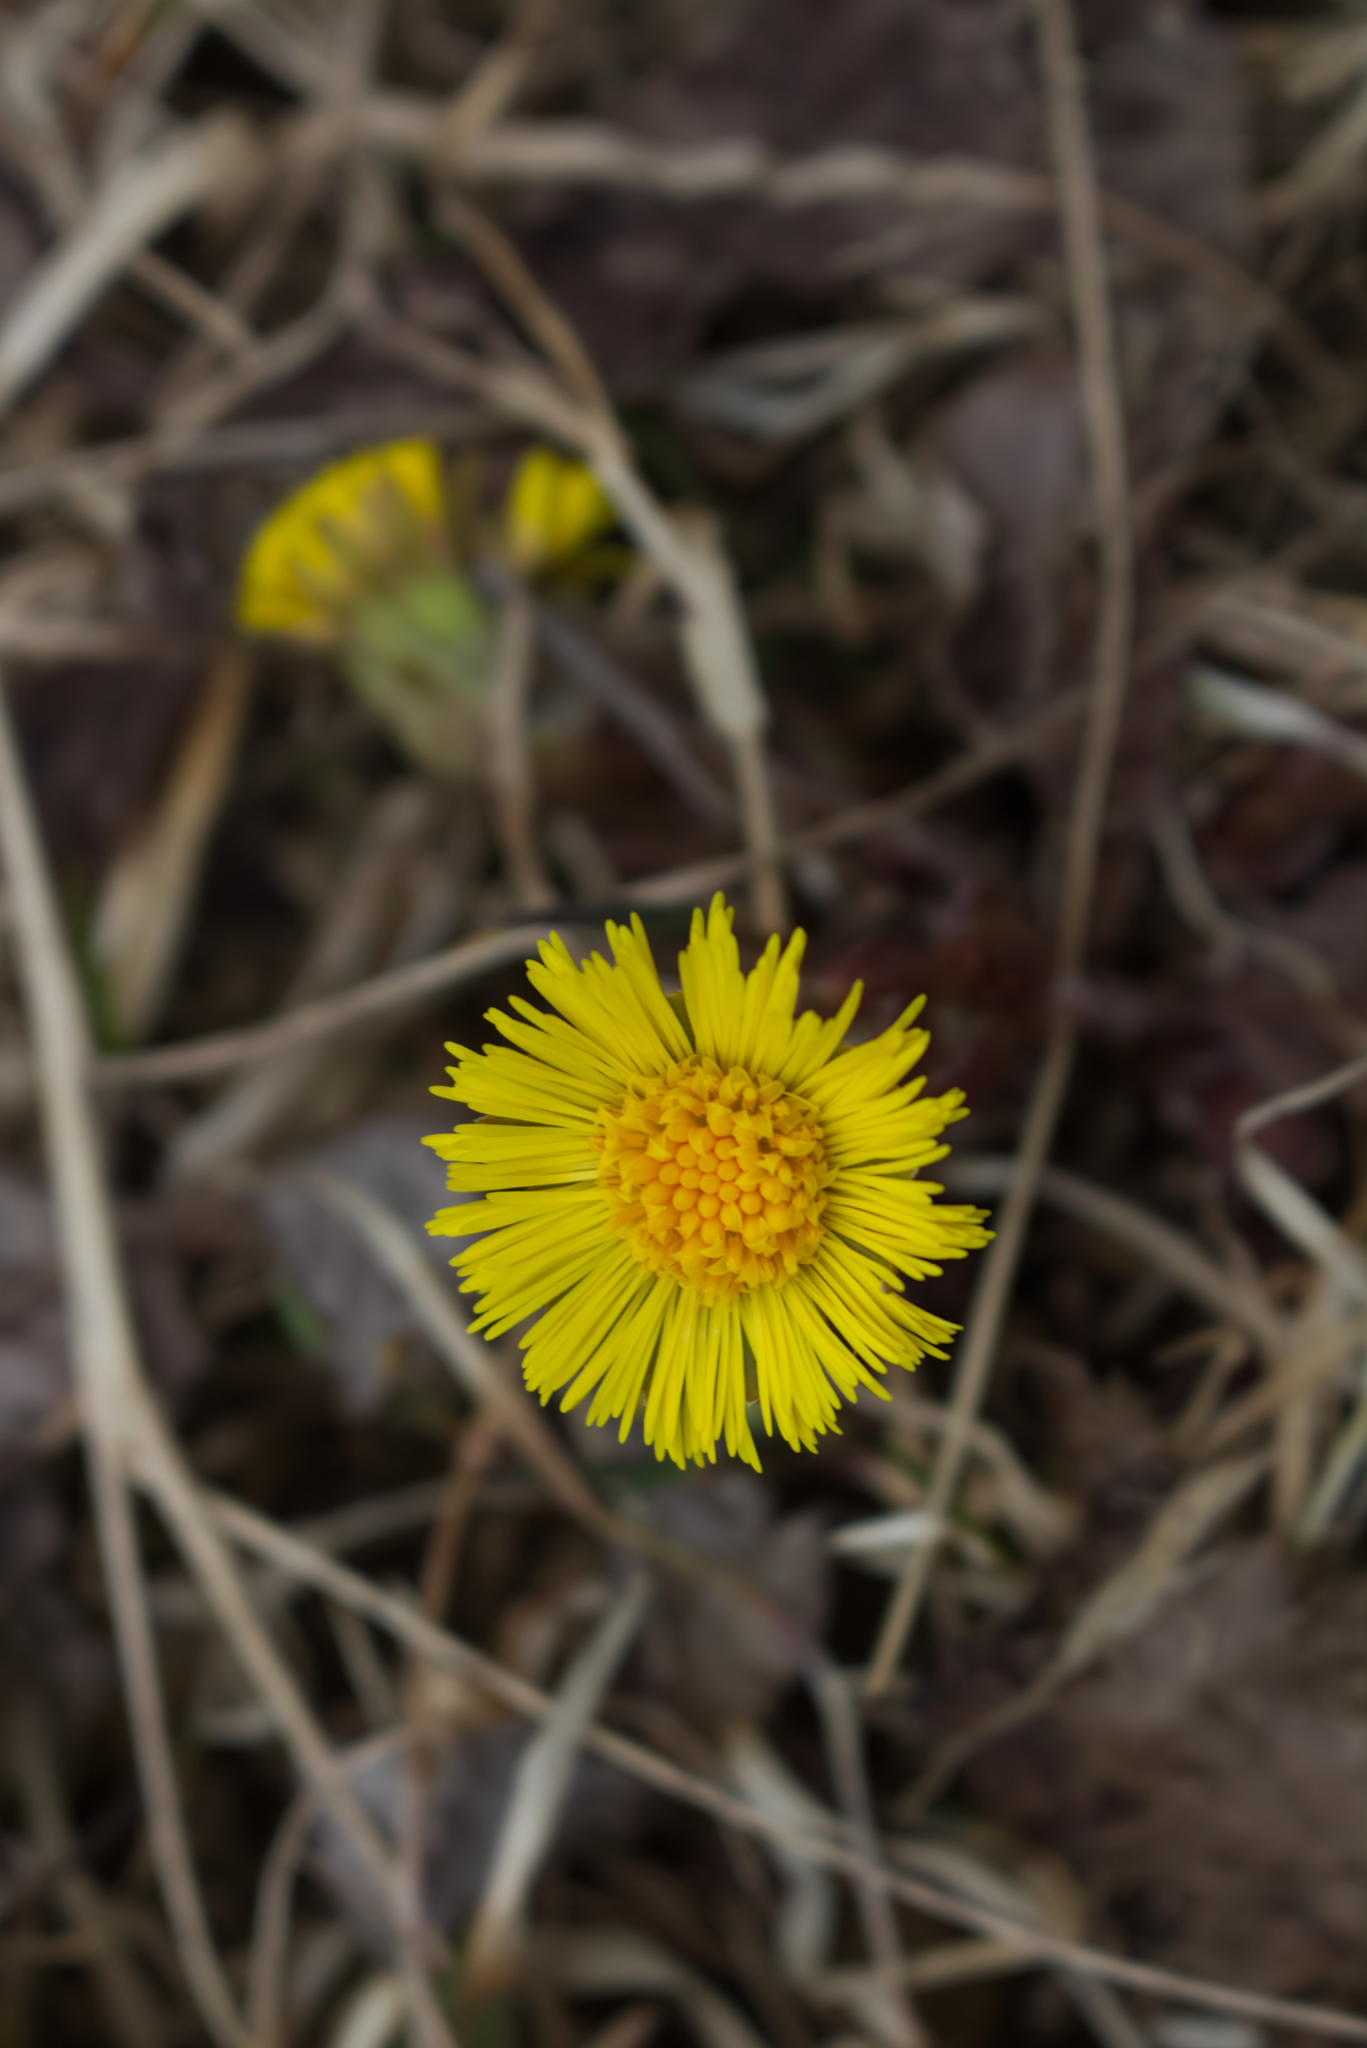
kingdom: Plantae
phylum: Tracheophyta
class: Magnoliopsida
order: Asterales
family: Asteraceae
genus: Tussilago
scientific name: Tussilago farfara
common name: Coltsfoot
